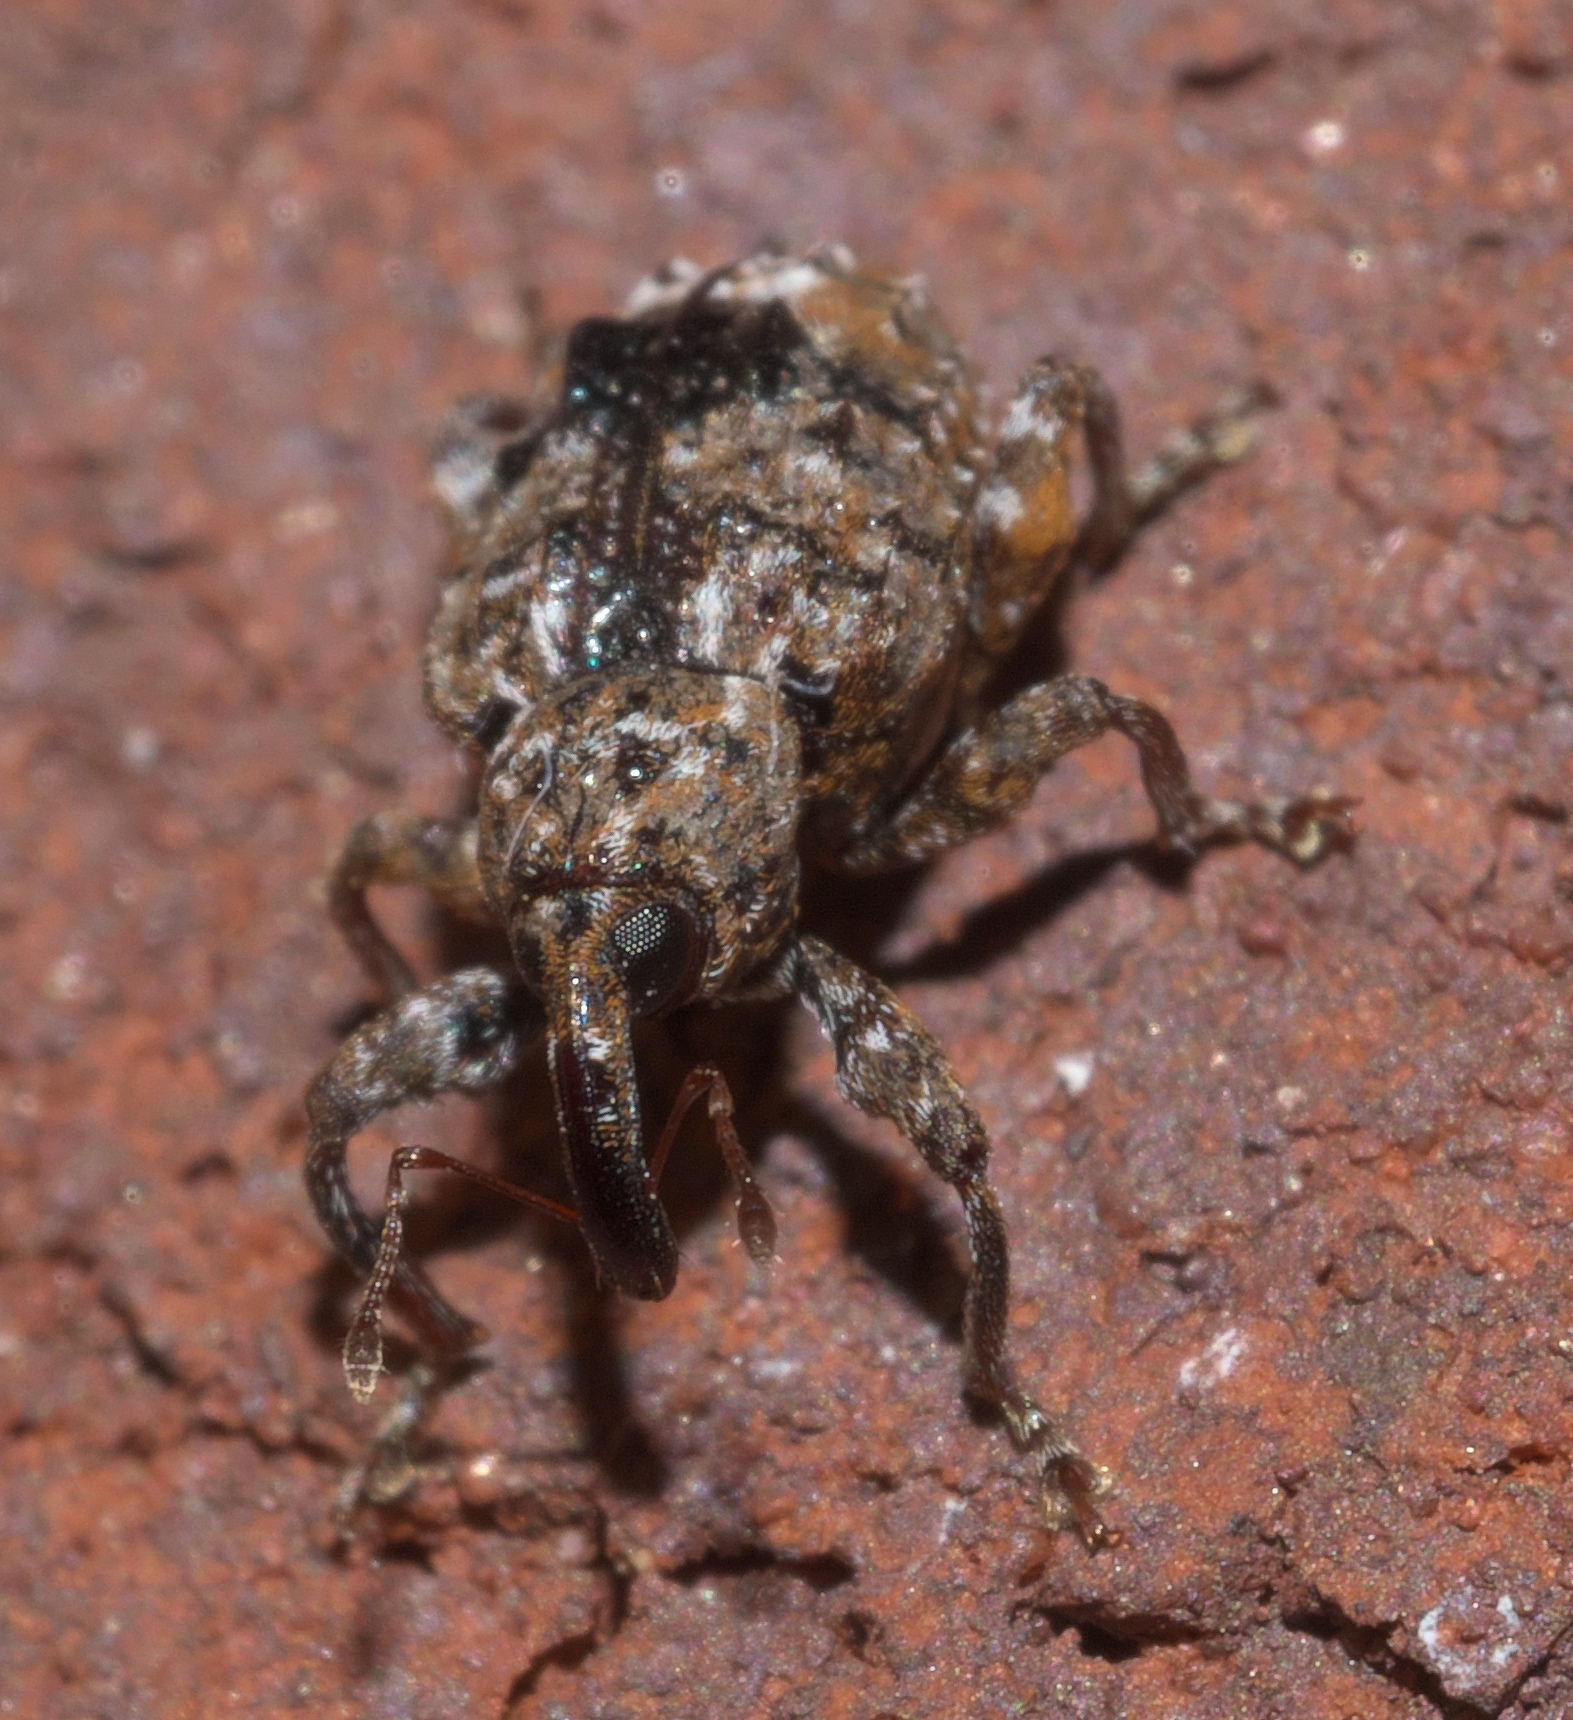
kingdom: Animalia
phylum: Arthropoda
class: Insecta
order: Coleoptera
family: Curculionidae
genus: Conotrachelus
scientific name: Conotrachelus nenuphar
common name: Plum curculio
